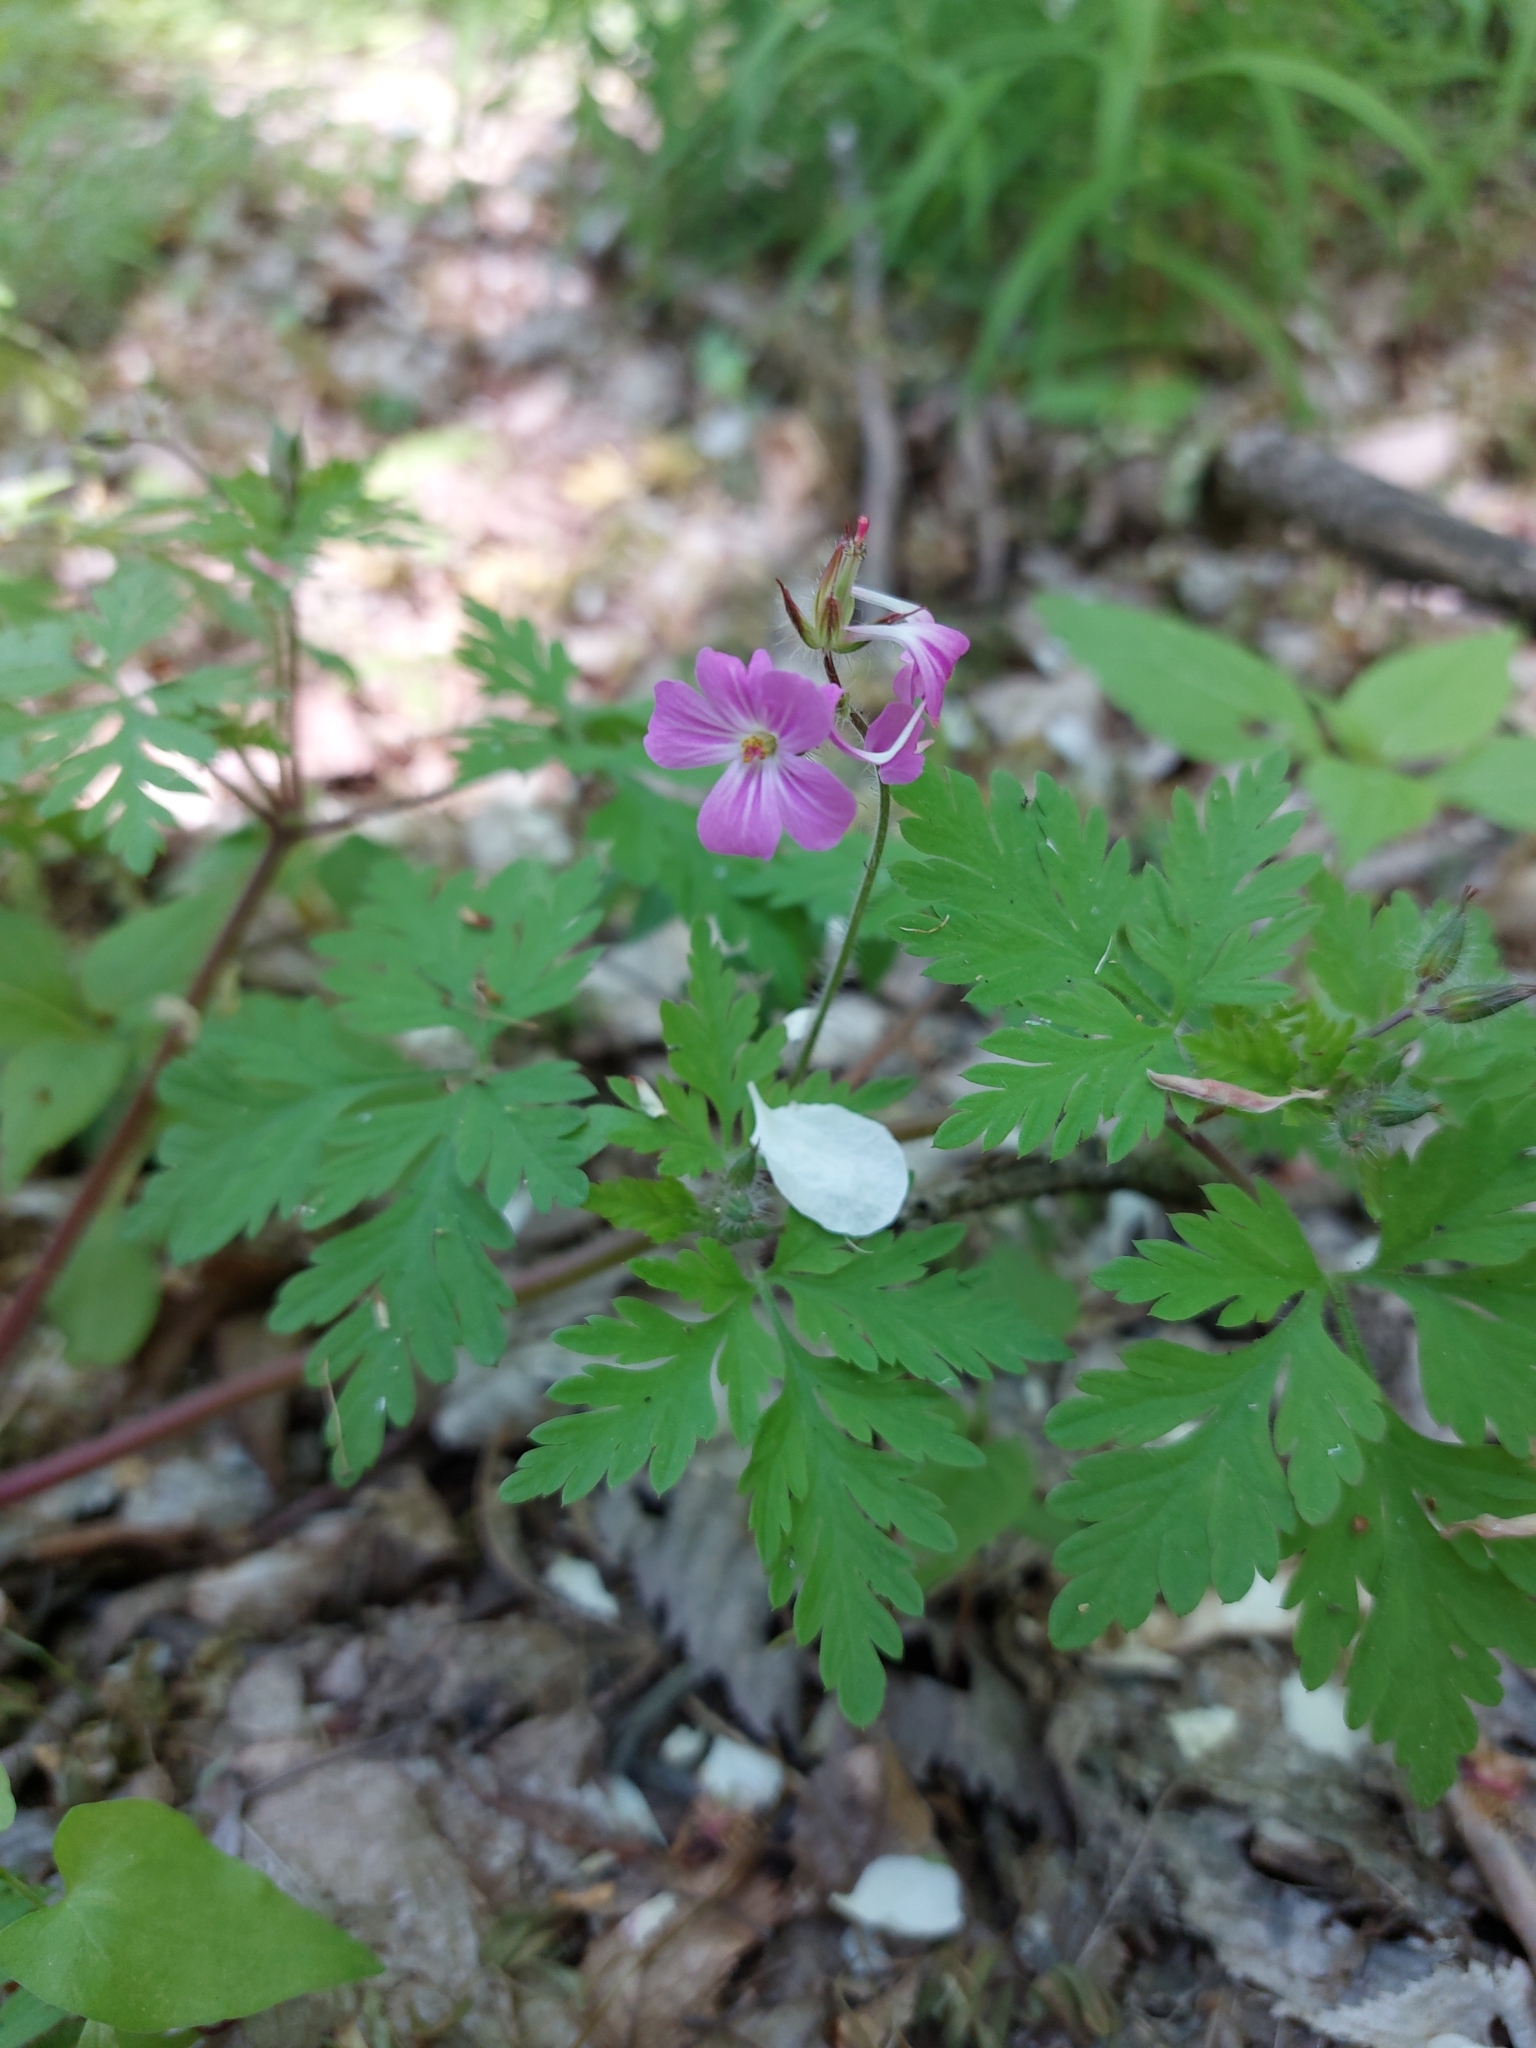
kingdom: Plantae
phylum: Tracheophyta
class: Magnoliopsida
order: Geraniales
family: Geraniaceae
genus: Geranium
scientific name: Geranium robertianum
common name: Herb-robert
